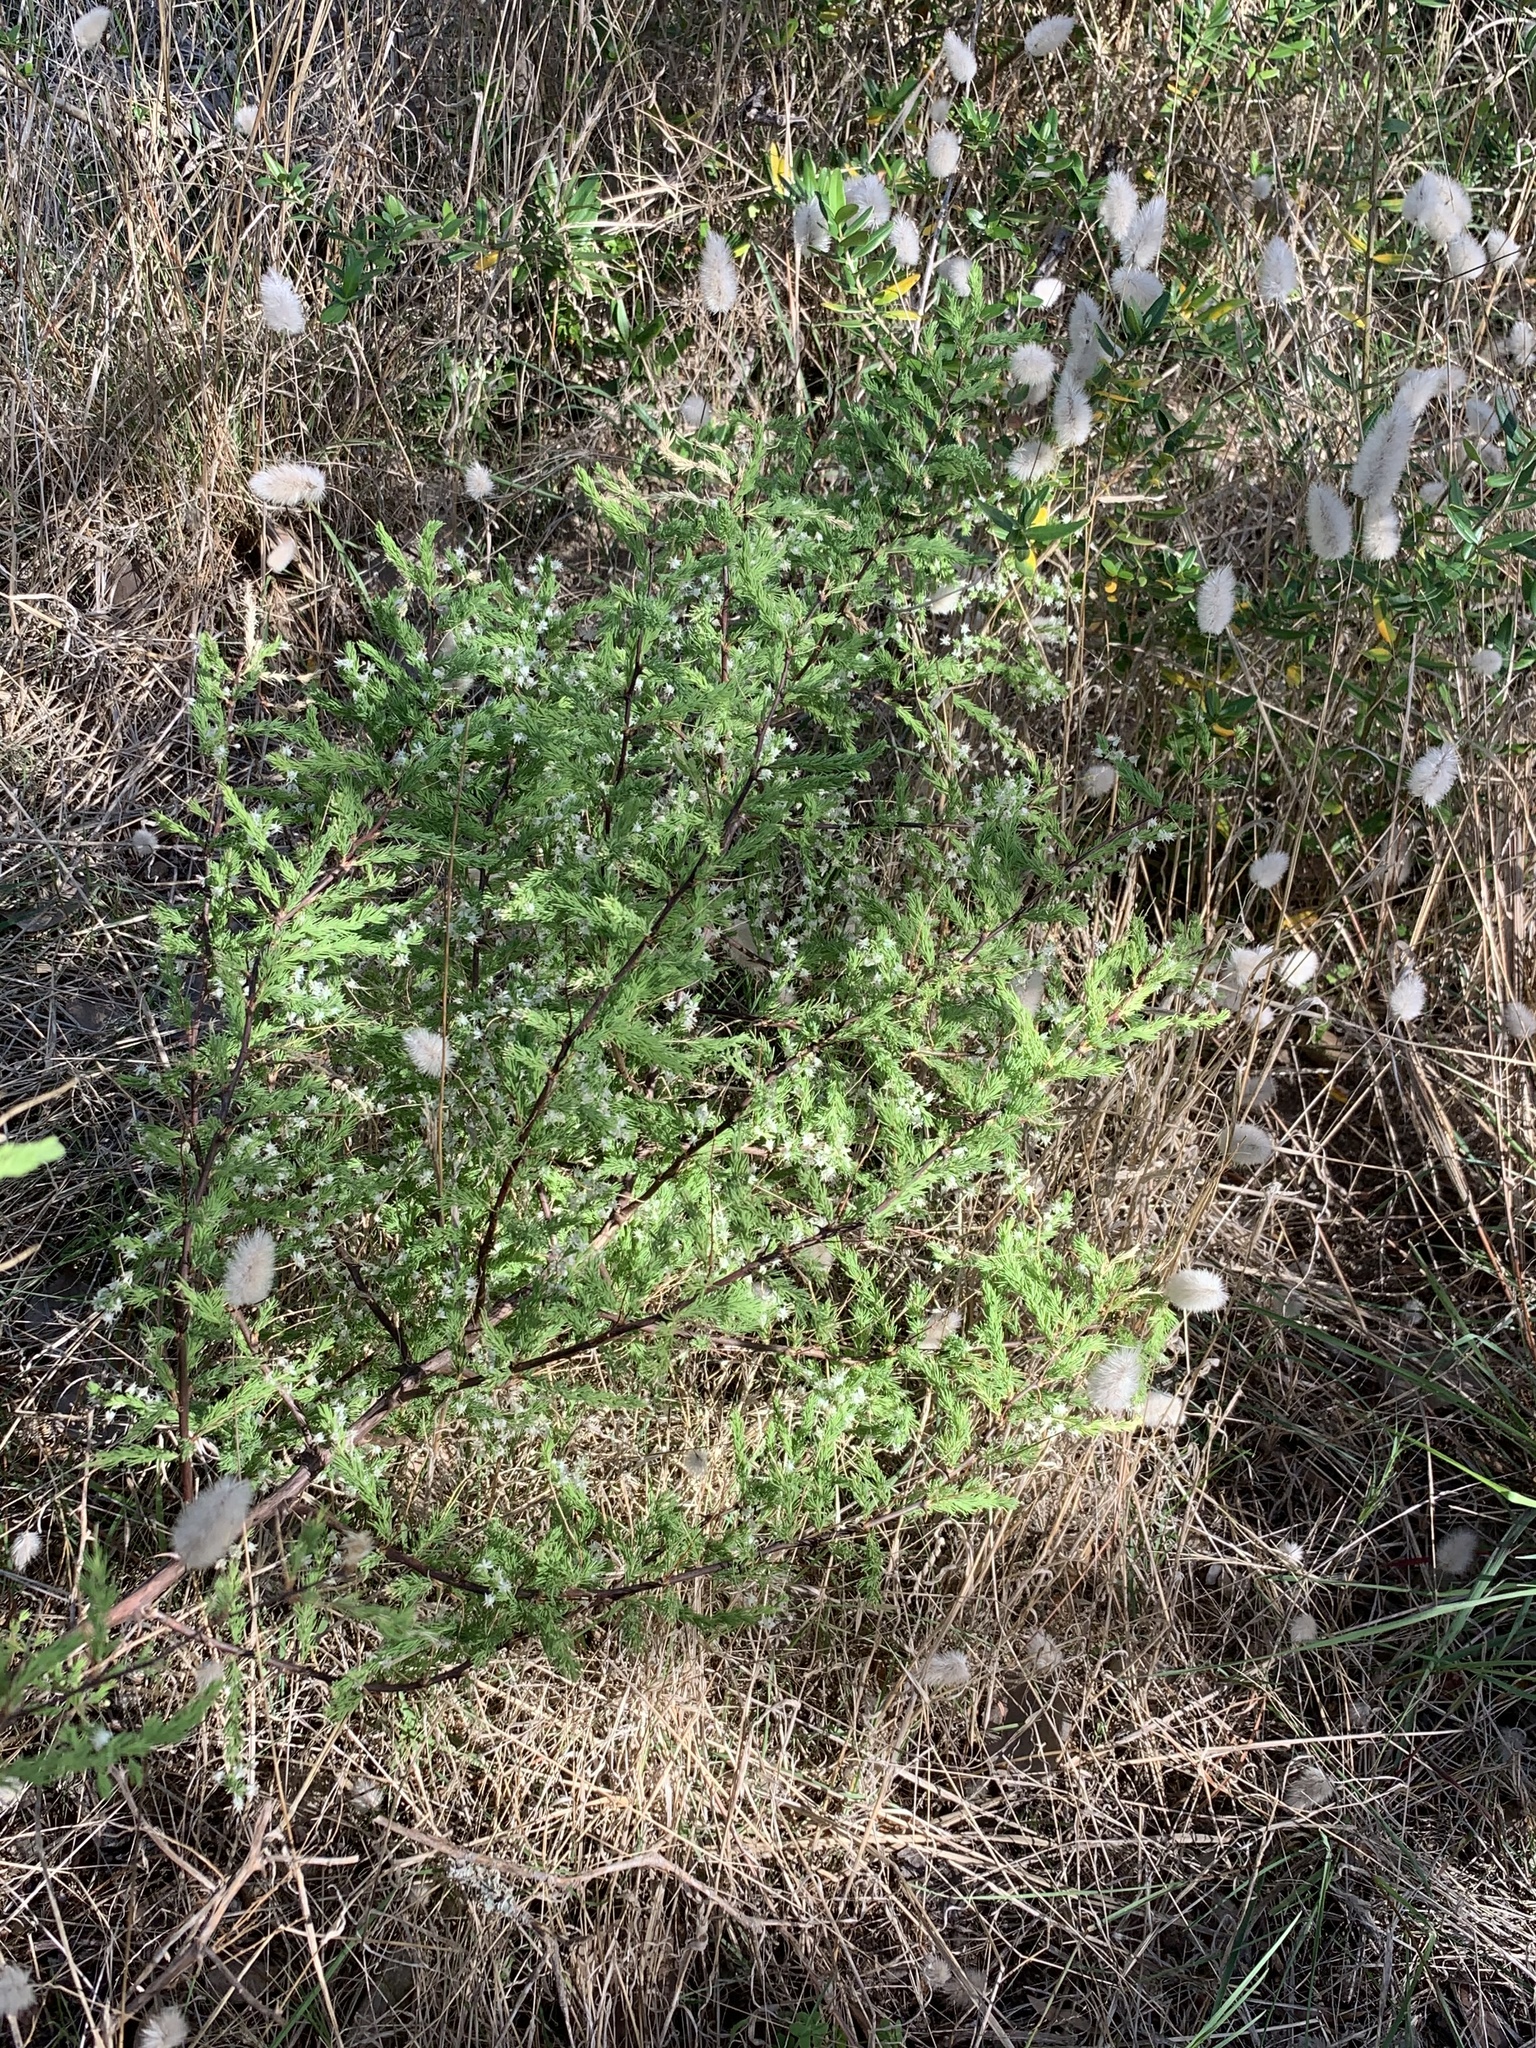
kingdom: Plantae
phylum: Tracheophyta
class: Liliopsida
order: Asparagales
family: Asparagaceae
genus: Asparagus
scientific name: Asparagus rubicundus
